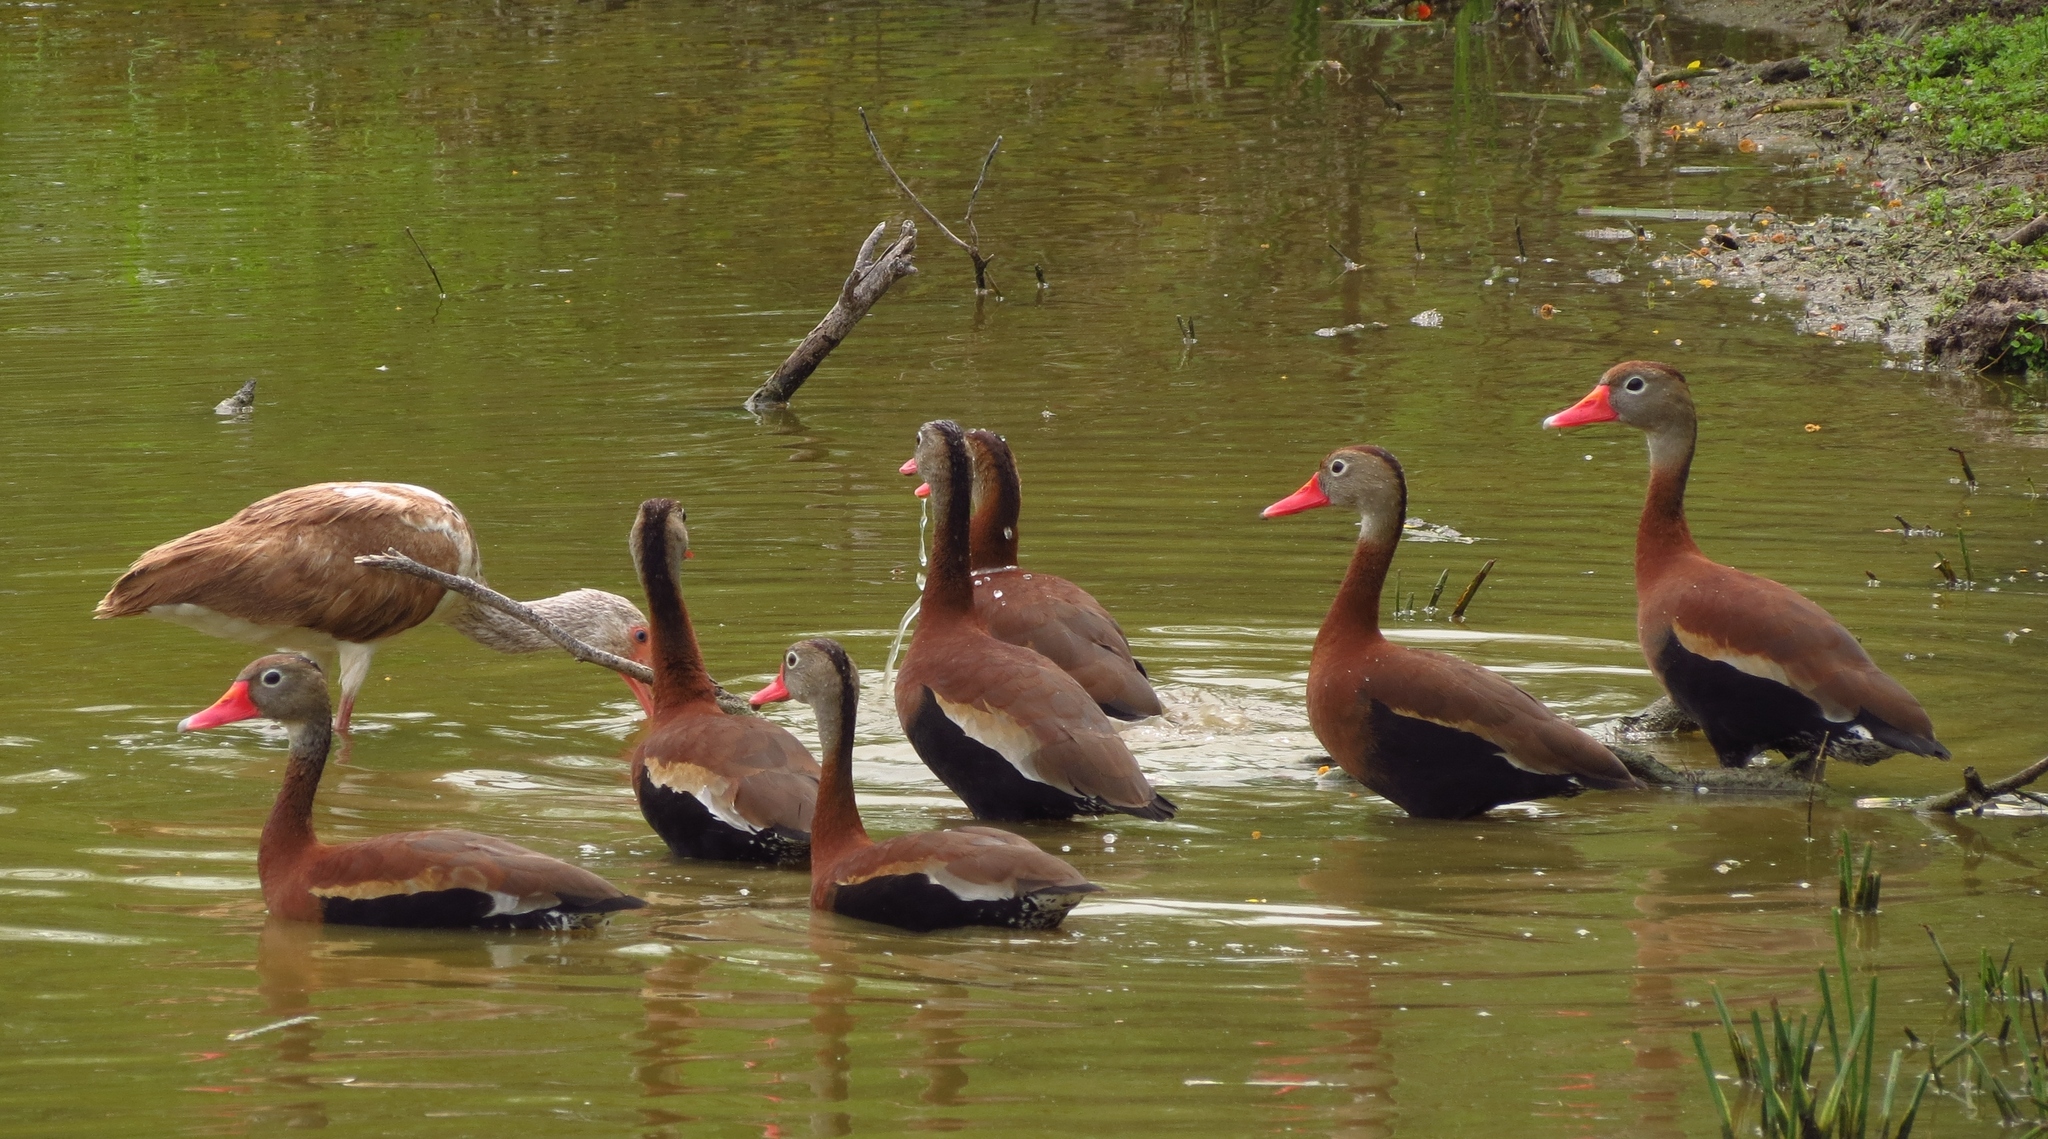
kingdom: Animalia
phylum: Chordata
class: Aves
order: Anseriformes
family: Anatidae
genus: Dendrocygna
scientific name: Dendrocygna autumnalis
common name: Black-bellied whistling duck
